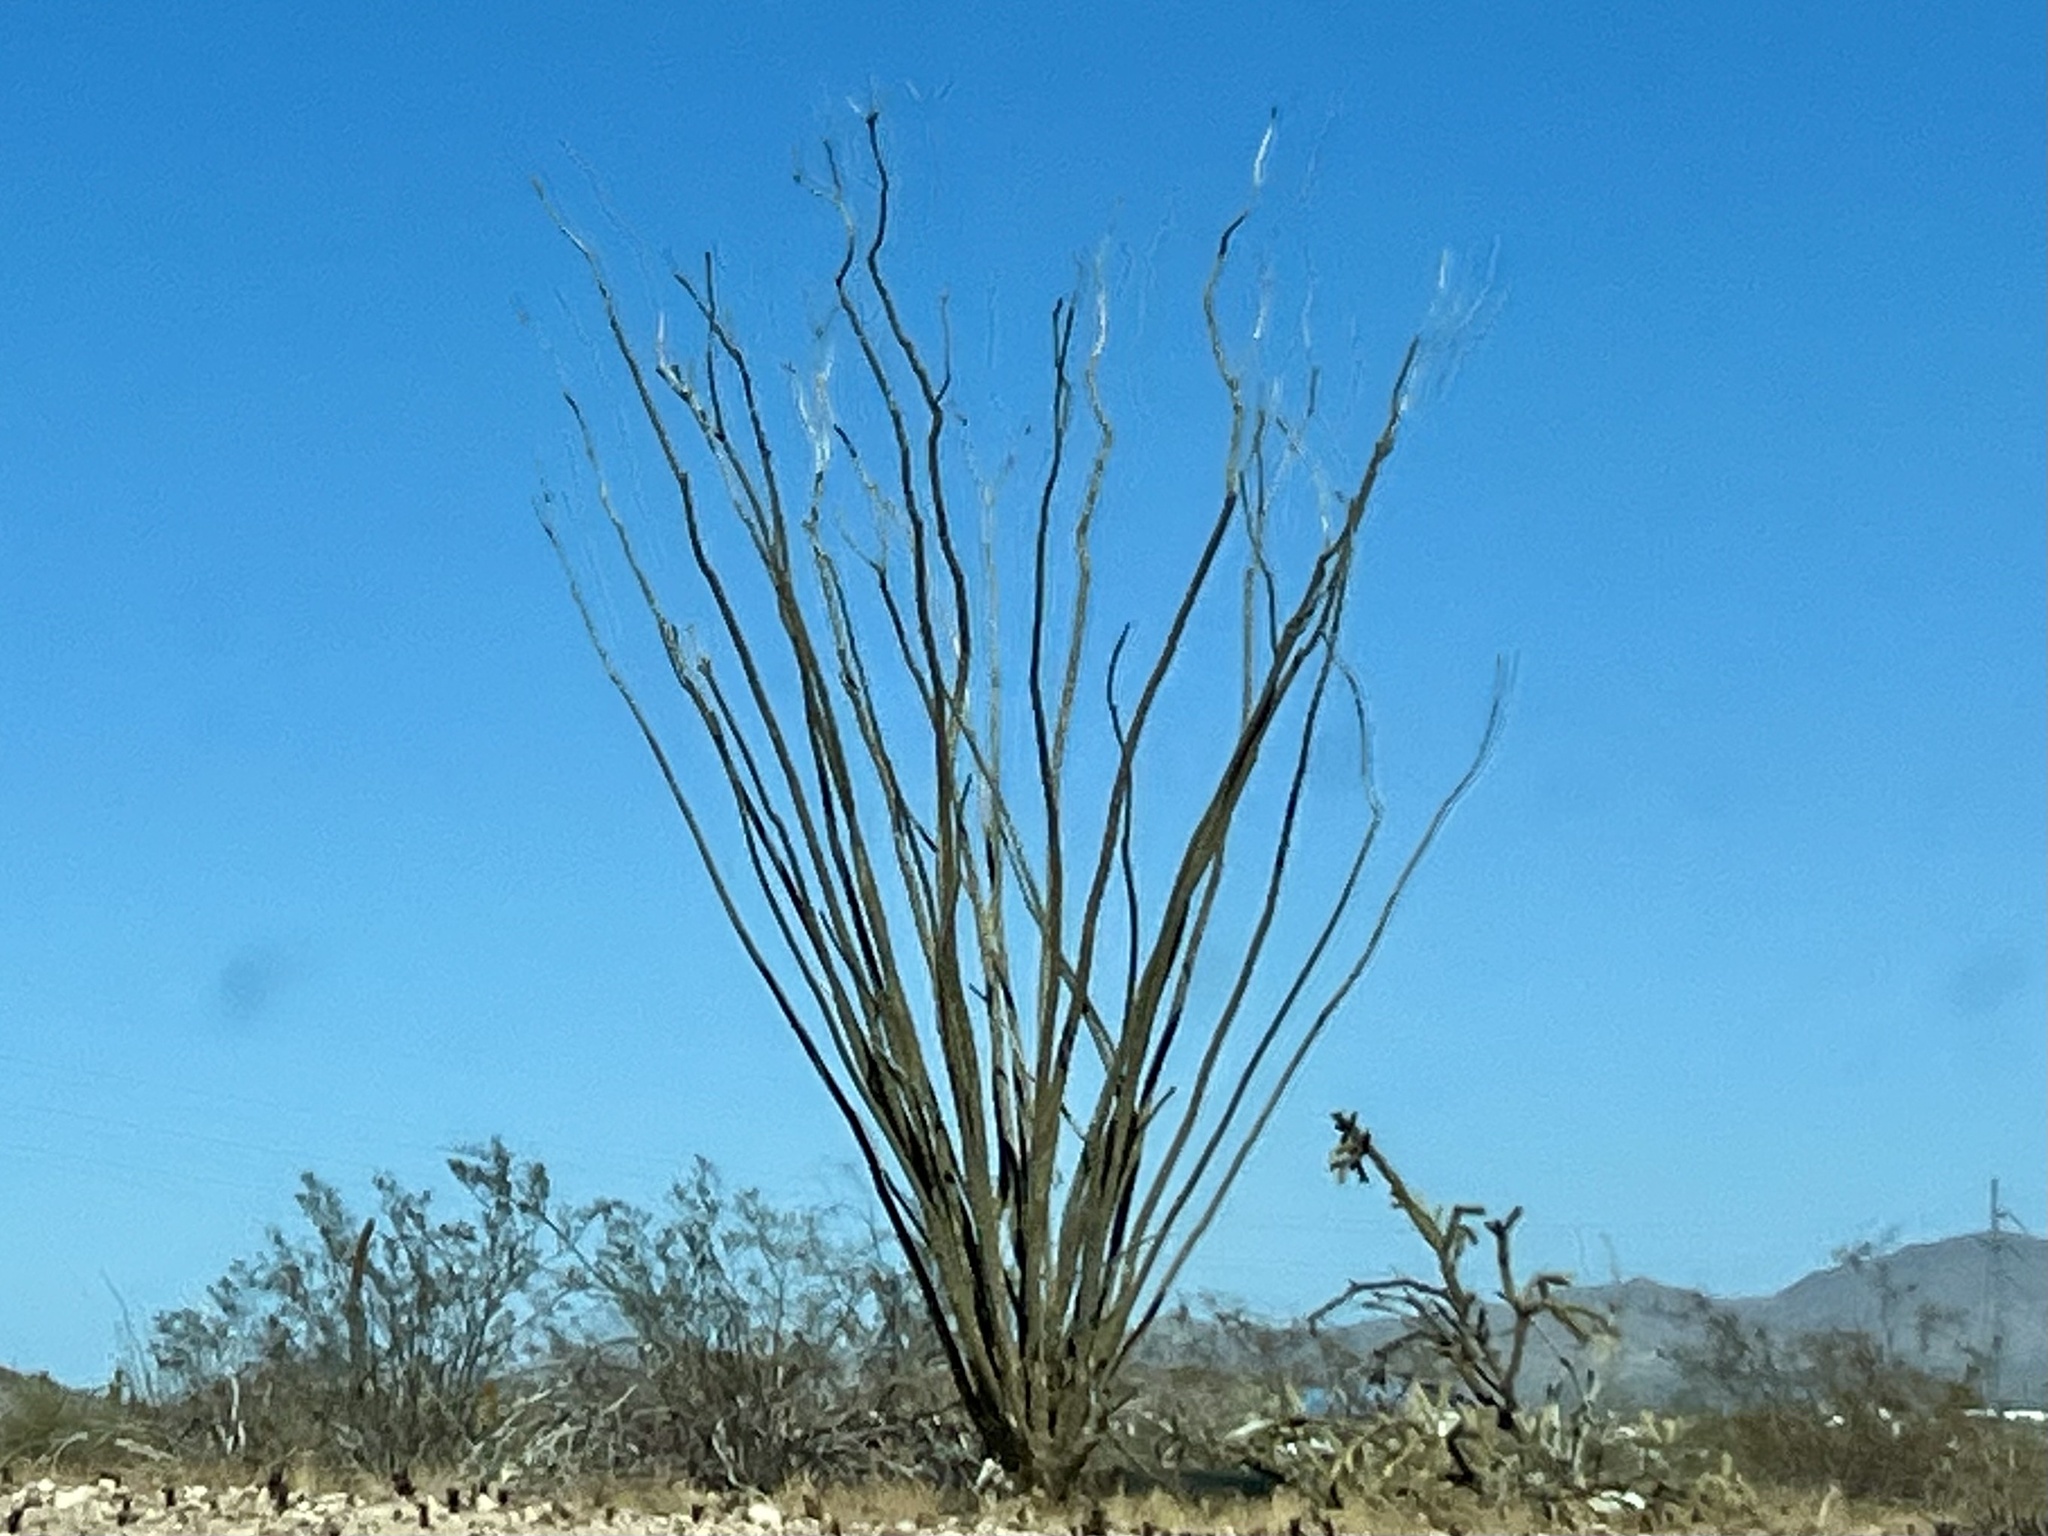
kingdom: Plantae
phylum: Tracheophyta
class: Magnoliopsida
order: Ericales
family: Fouquieriaceae
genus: Fouquieria
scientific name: Fouquieria splendens
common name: Vine-cactus
